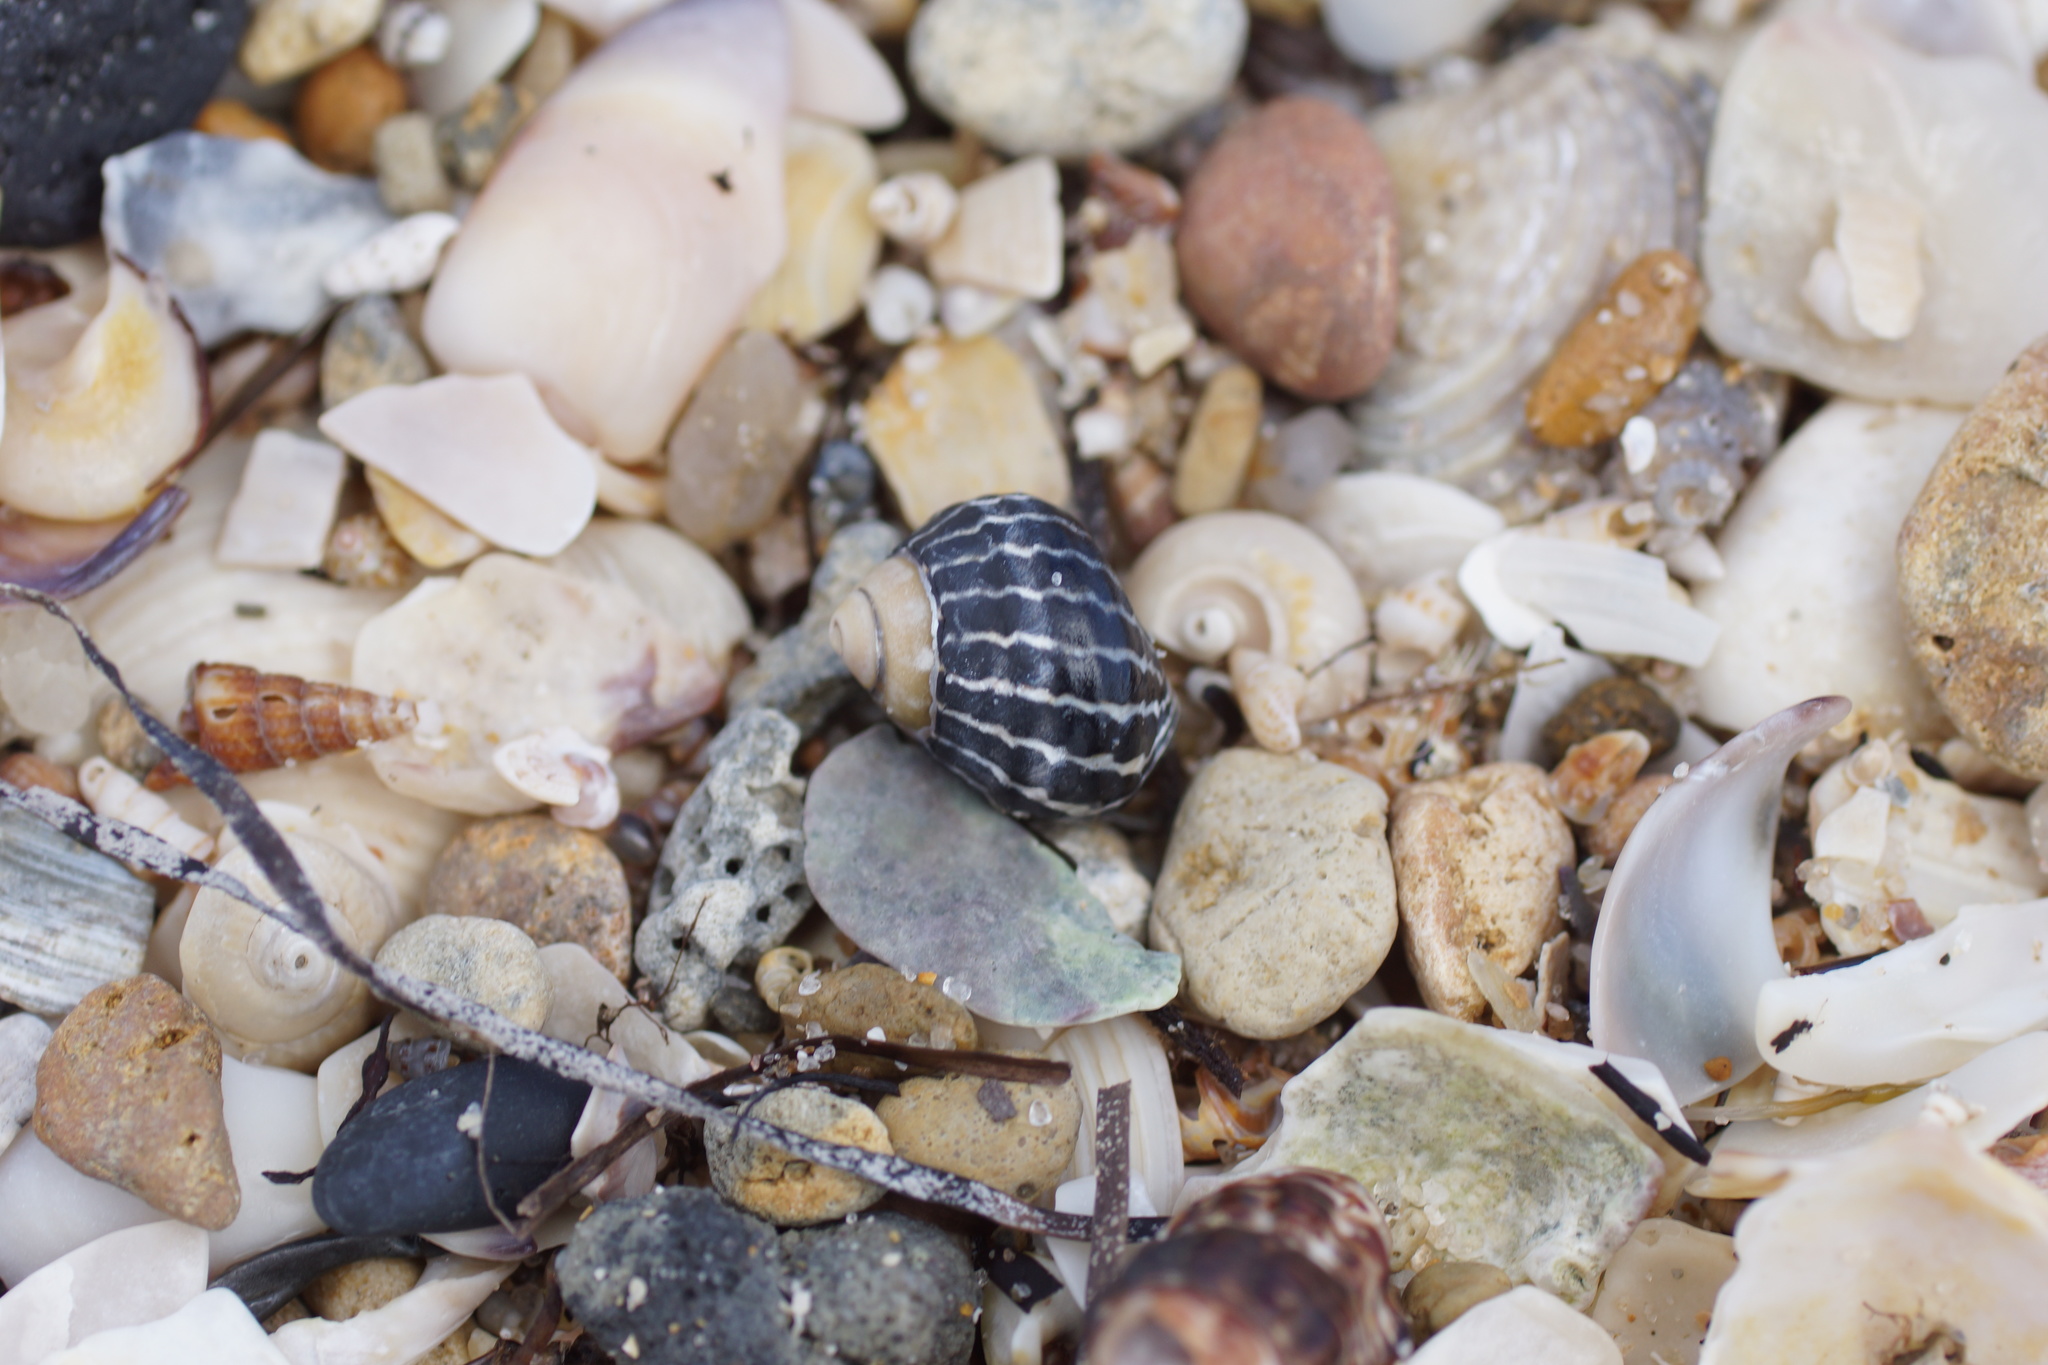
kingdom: Animalia
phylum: Mollusca
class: Gastropoda
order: Trochida
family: Trochidae
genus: Austrocochlea
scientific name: Austrocochlea porcata
